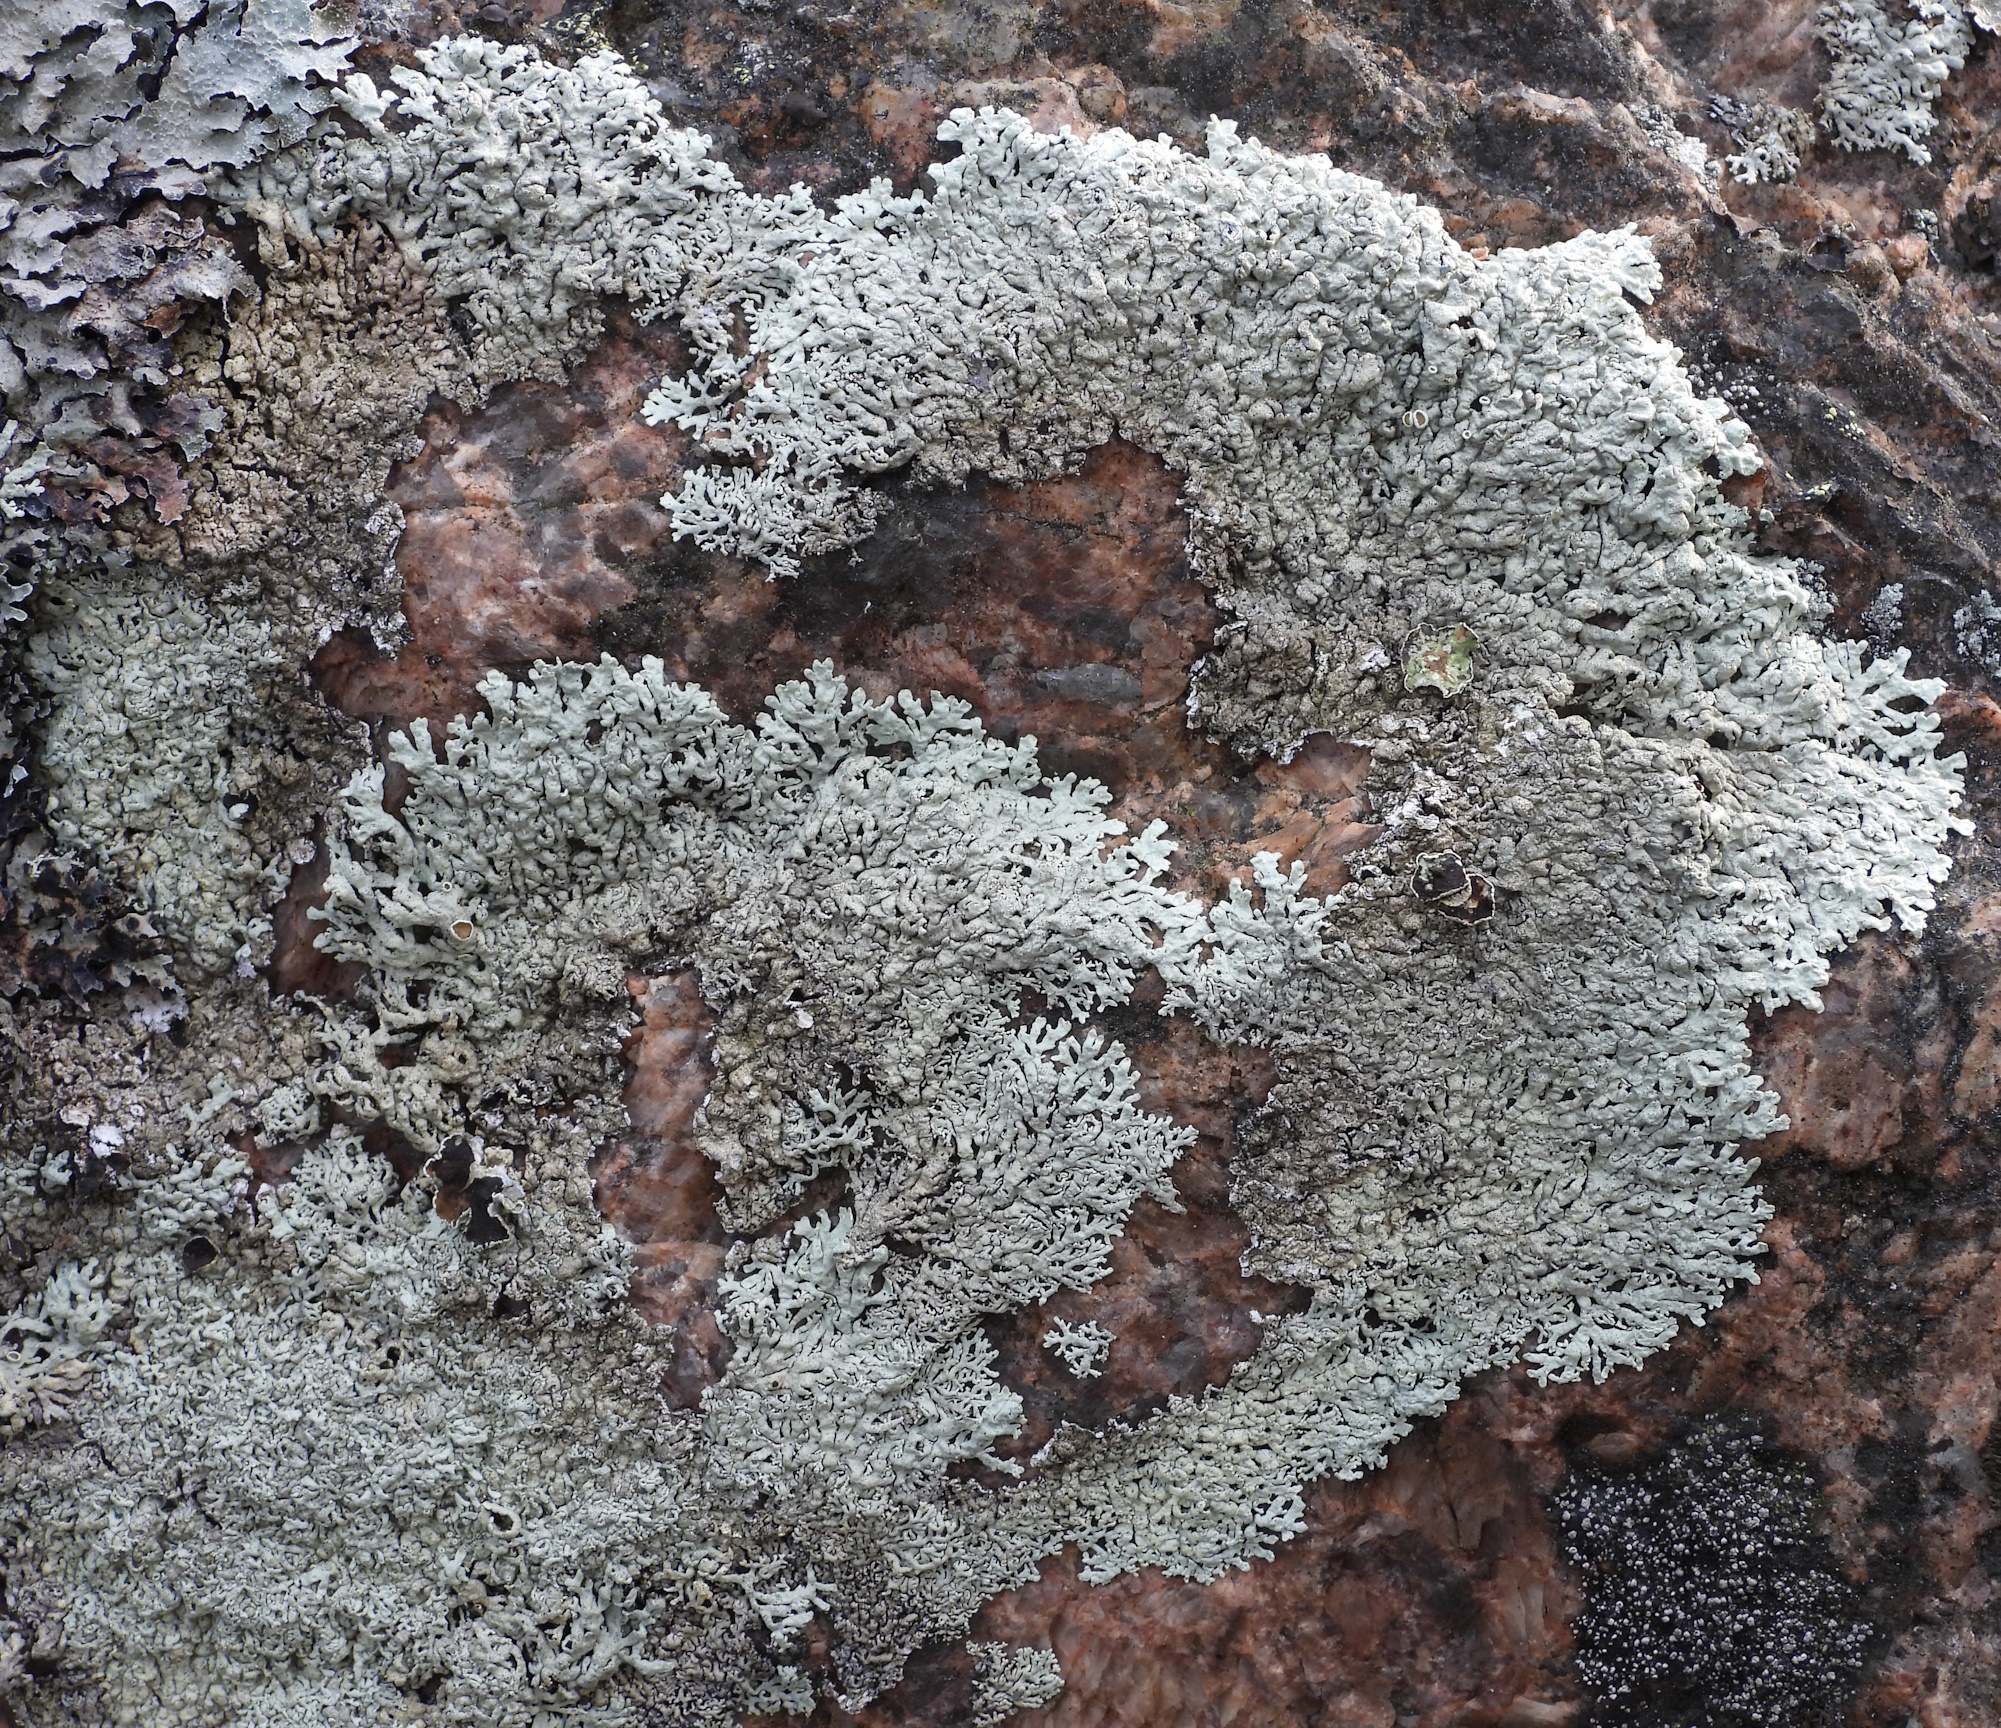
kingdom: Fungi
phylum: Ascomycota
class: Lecanoromycetes
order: Lecanorales
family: Parmeliaceae
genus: Arctoparmelia
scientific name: Arctoparmelia centrifuga
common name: Concentric ring lichen
